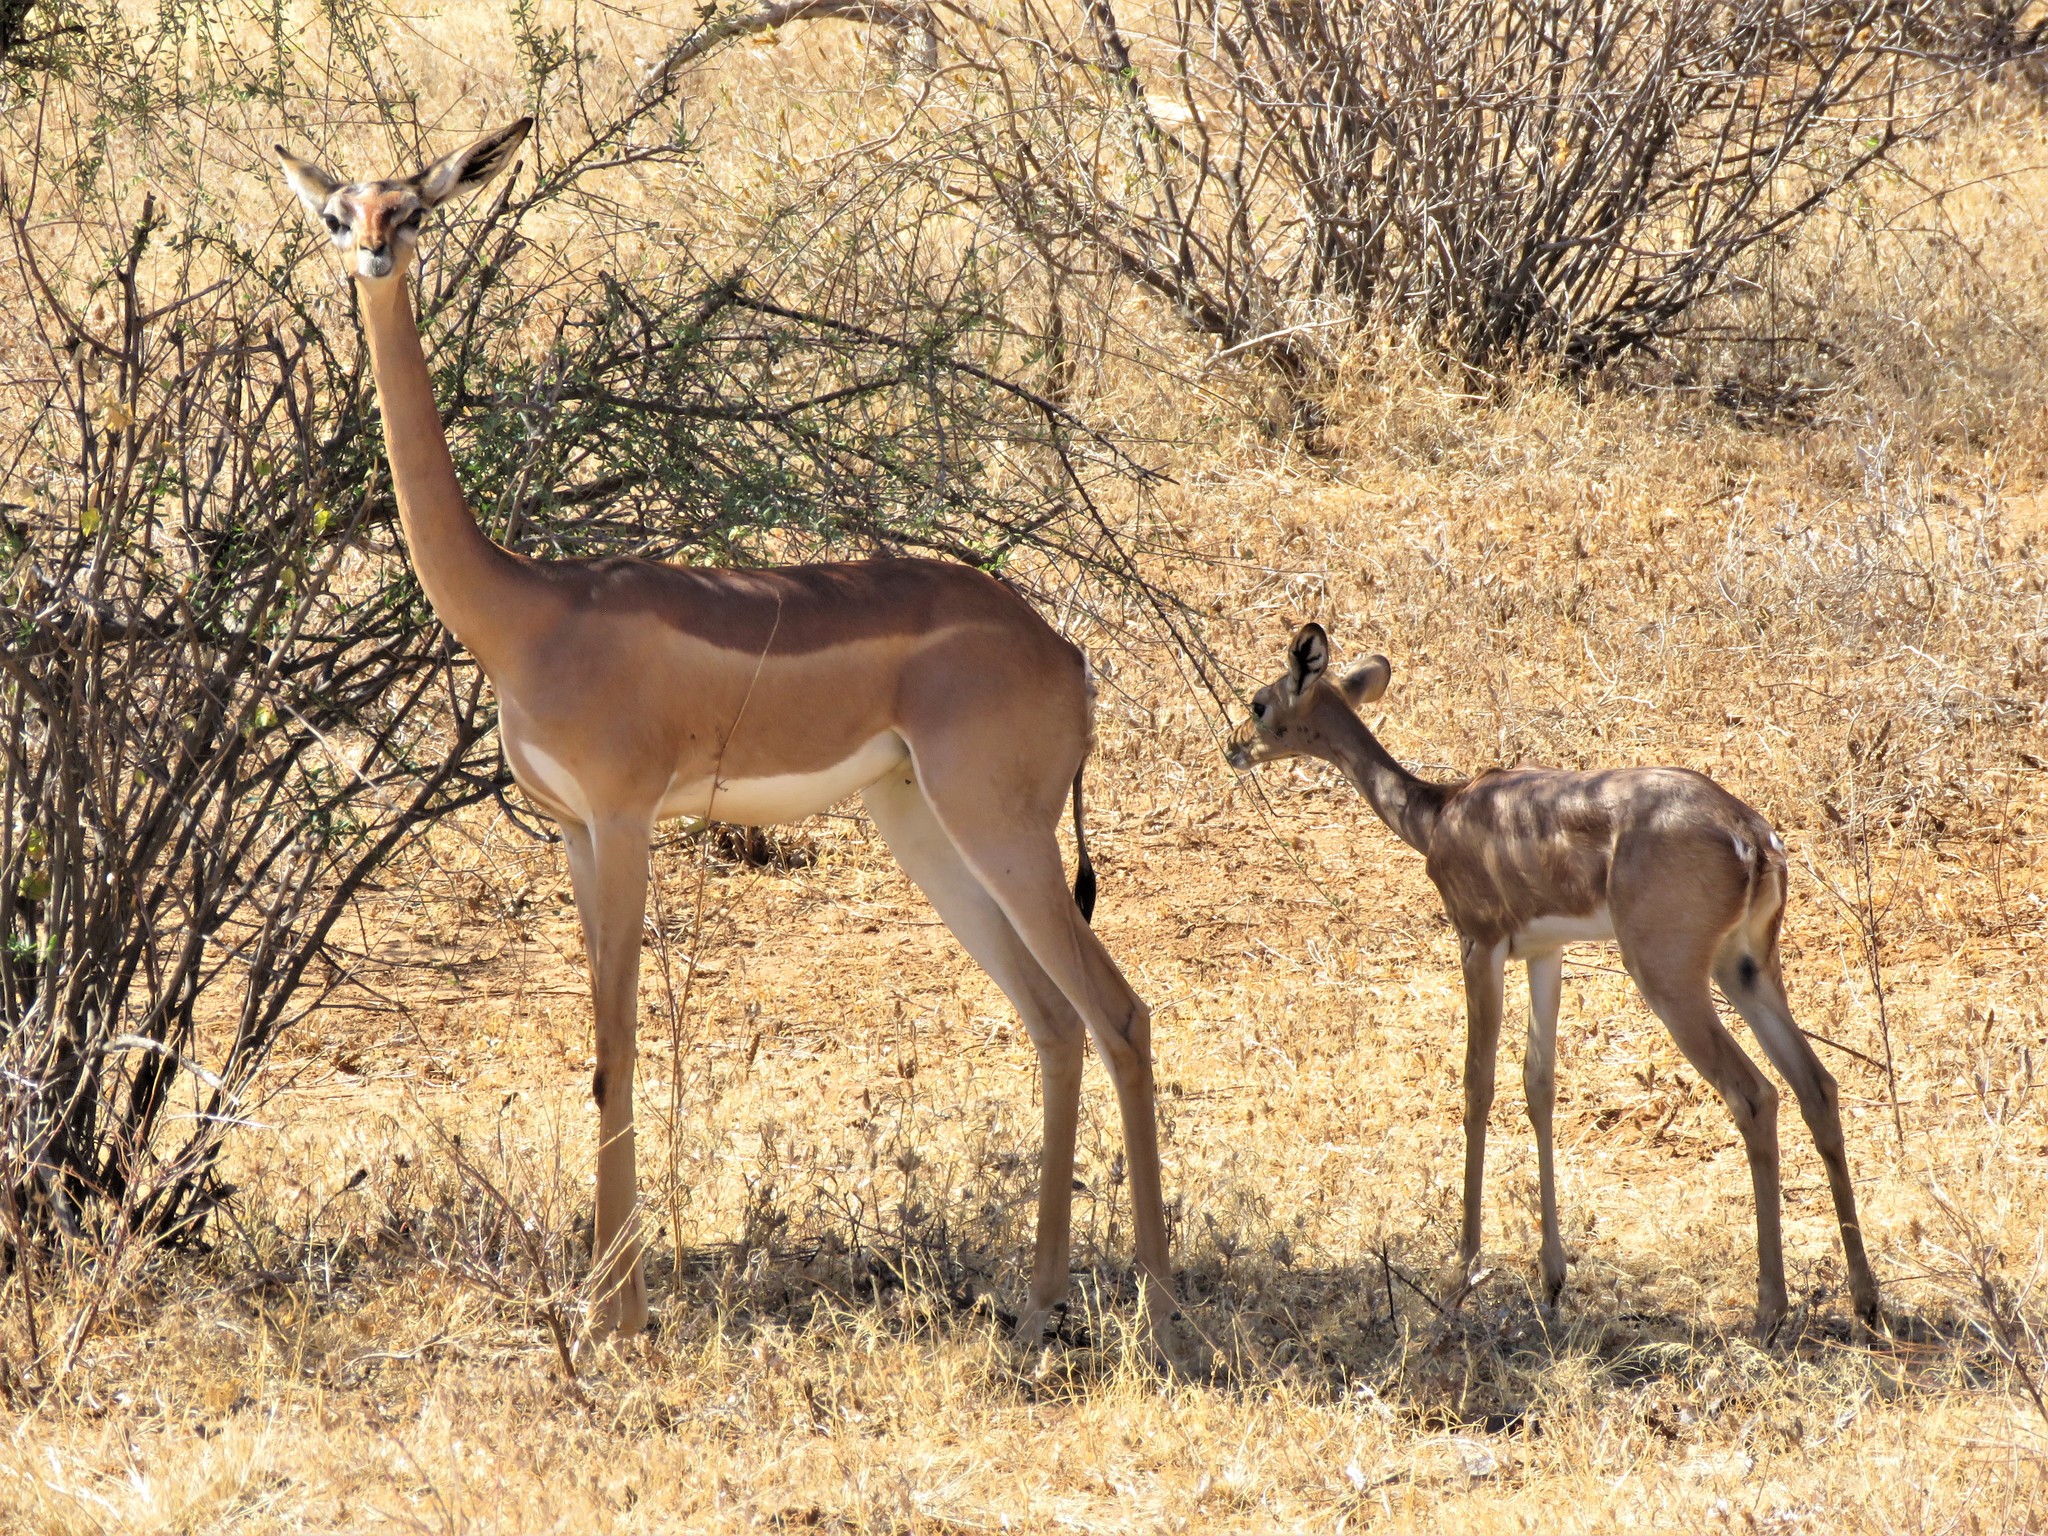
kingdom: Animalia
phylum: Chordata
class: Mammalia
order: Artiodactyla
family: Bovidae
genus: Litocranius
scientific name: Litocranius walleri
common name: Gerenuk
